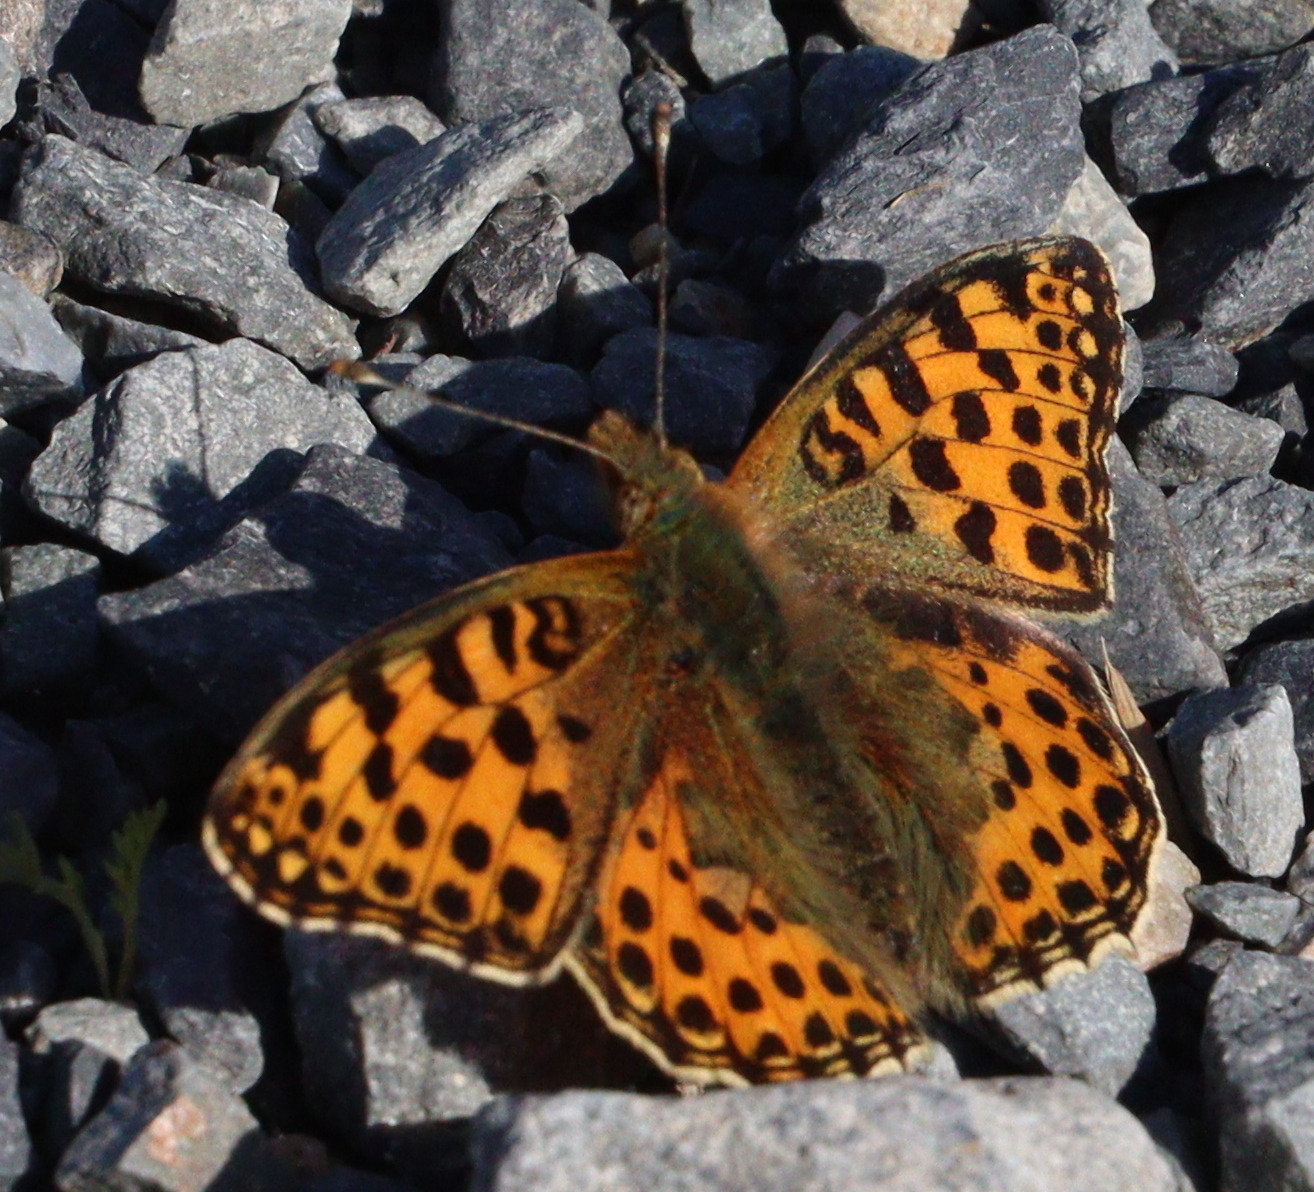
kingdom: Animalia
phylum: Arthropoda
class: Insecta
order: Lepidoptera
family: Nymphalidae
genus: Issoria
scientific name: Issoria lathonia
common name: Queen of spain fritillary
